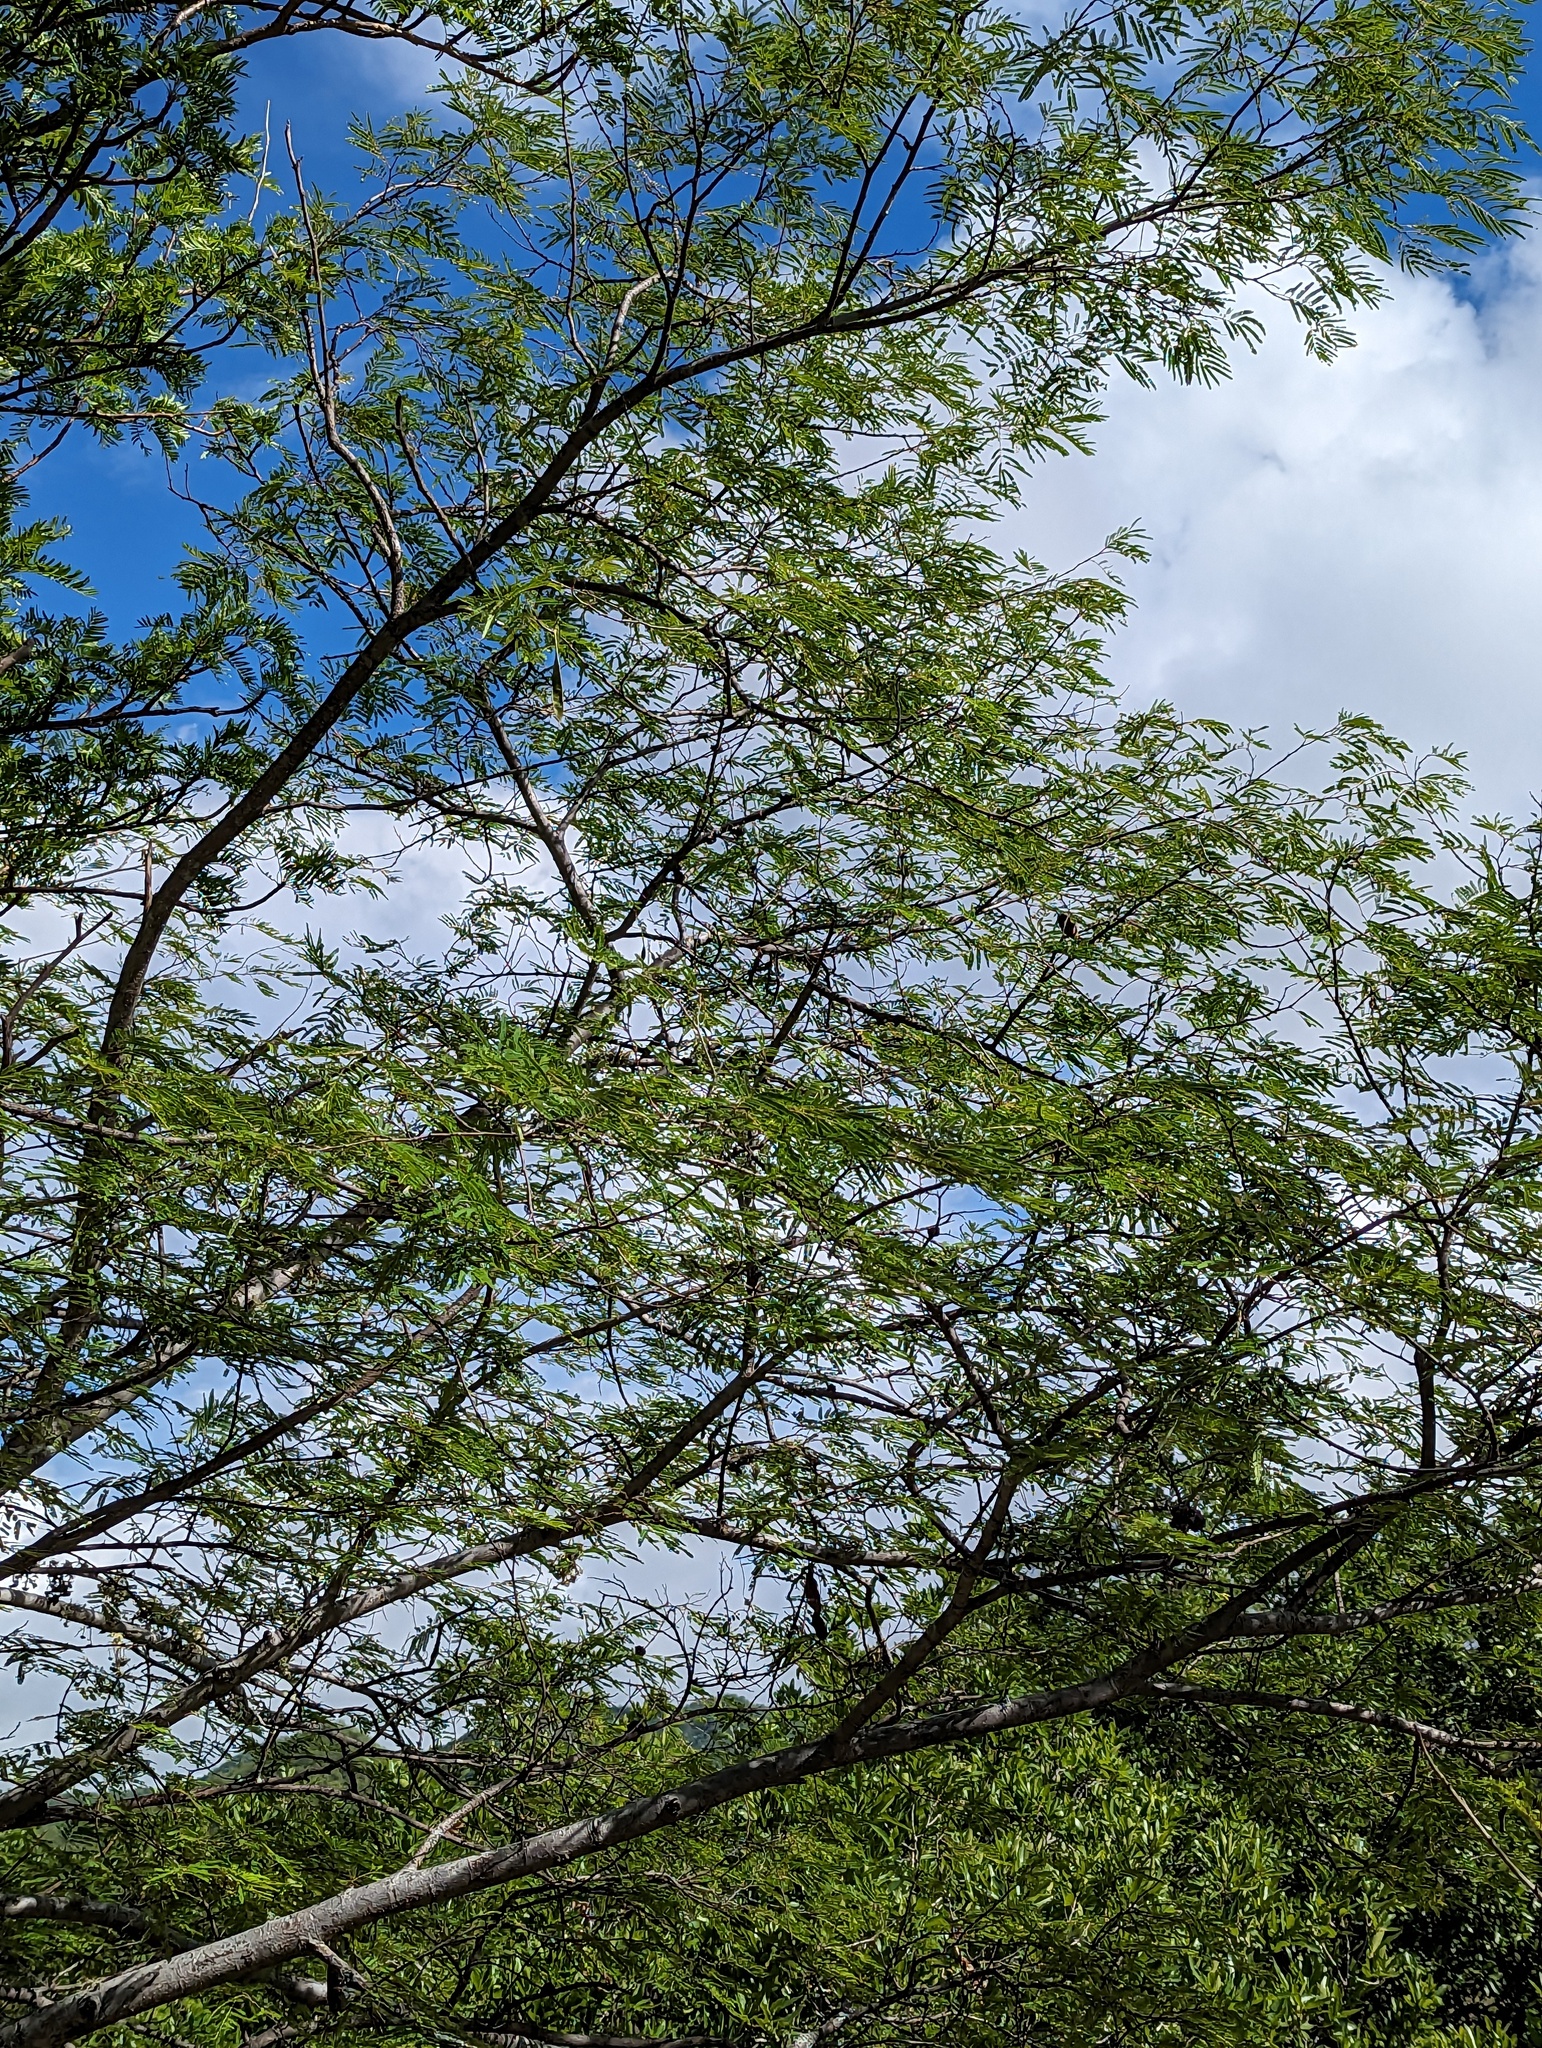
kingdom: Plantae
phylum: Tracheophyta
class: Magnoliopsida
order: Fabales
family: Fabaceae
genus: Lysiloma
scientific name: Lysiloma divaricatum
